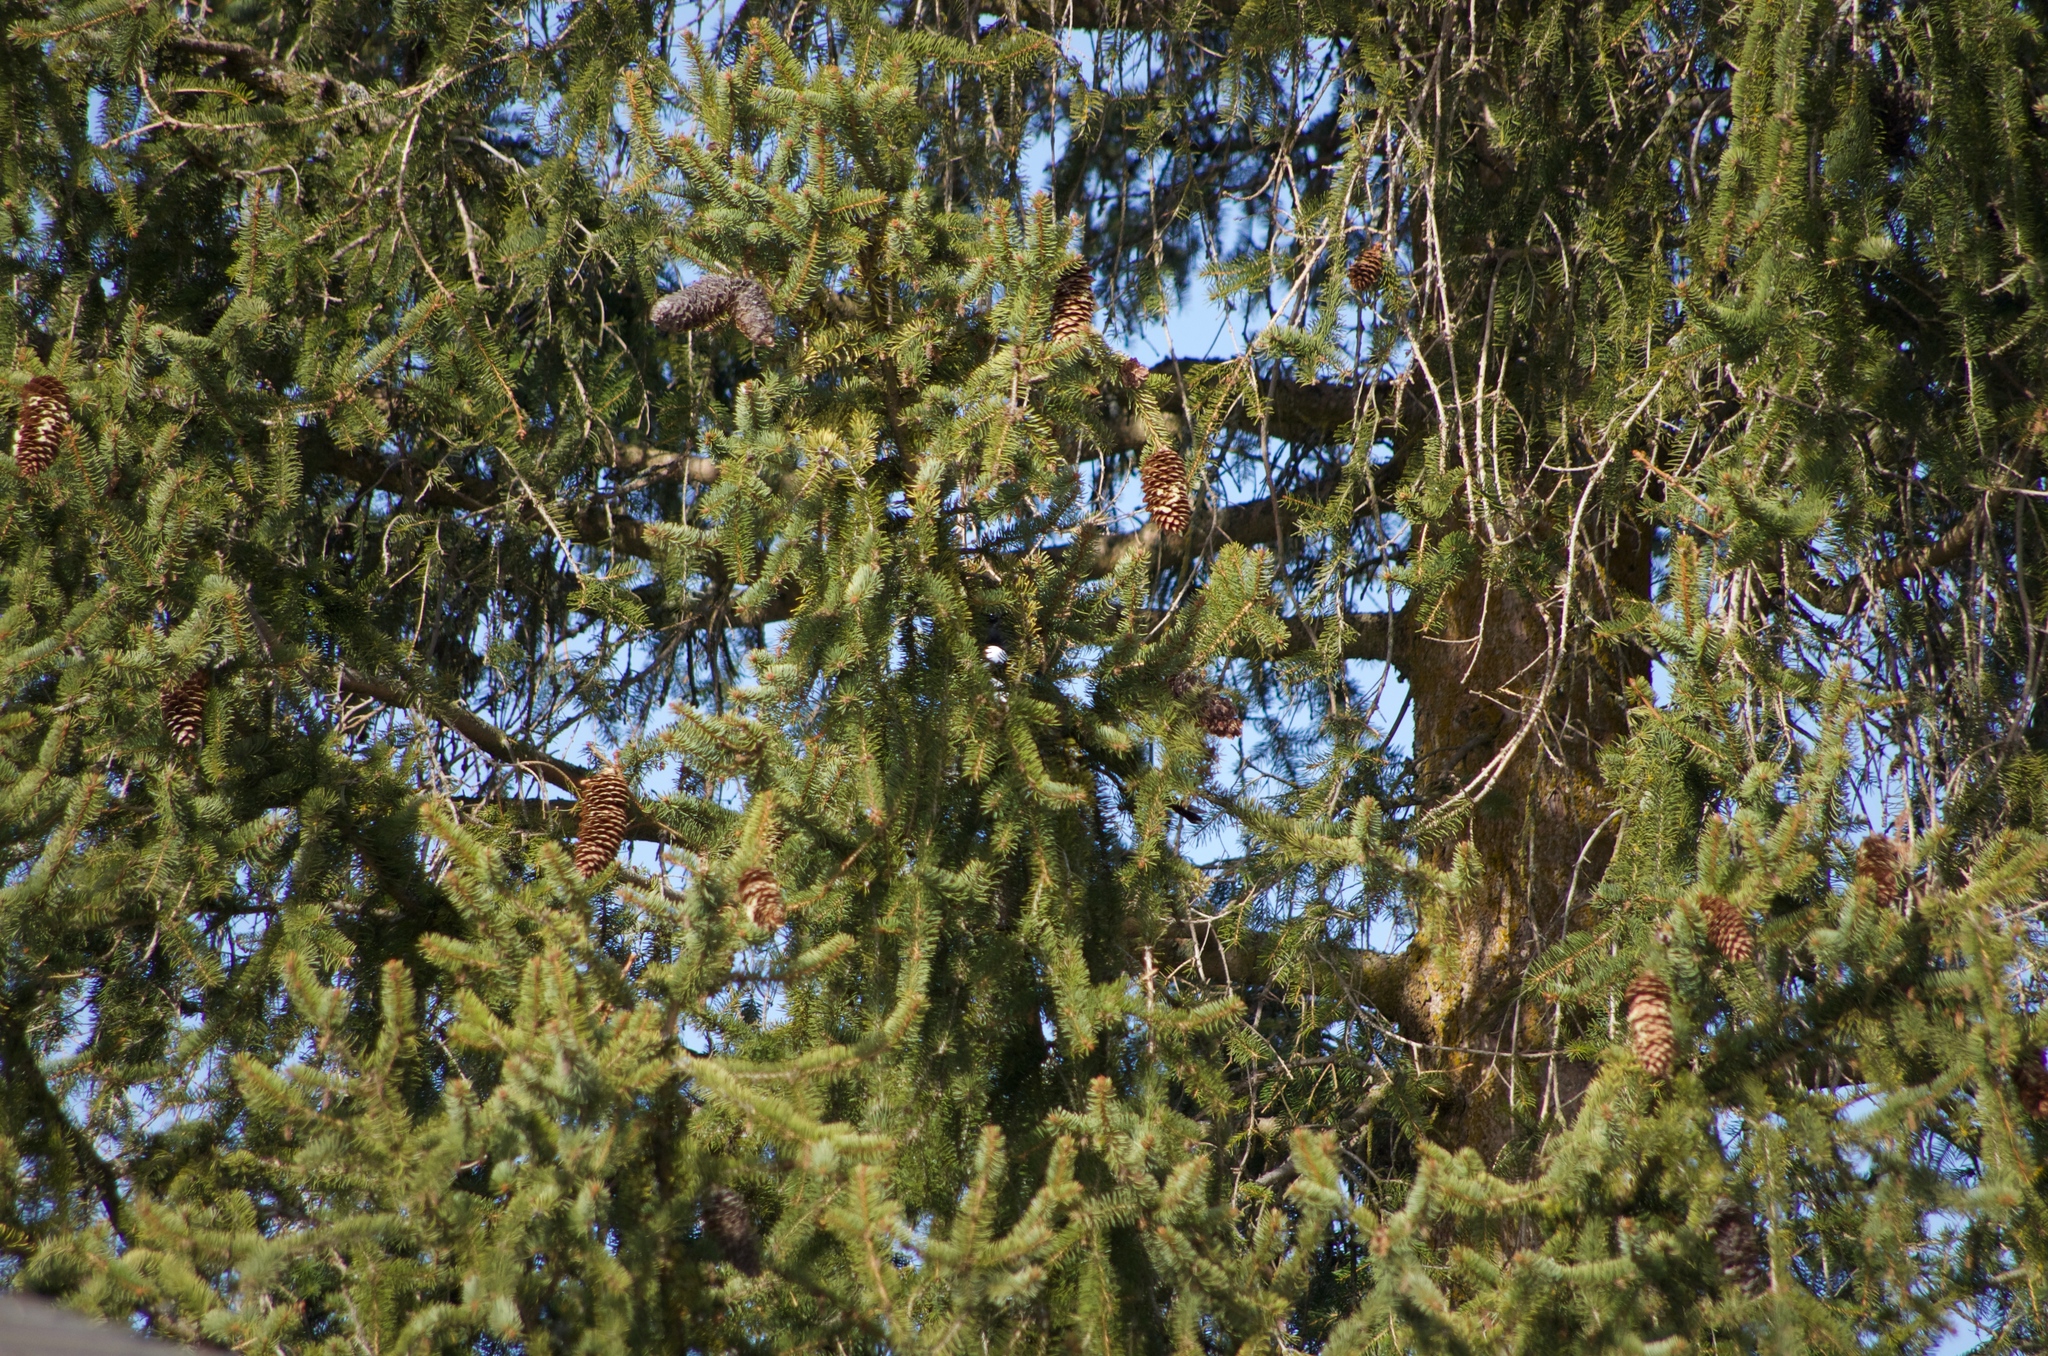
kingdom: Plantae
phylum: Tracheophyta
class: Pinopsida
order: Pinales
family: Pinaceae
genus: Picea
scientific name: Picea abies
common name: Norway spruce
